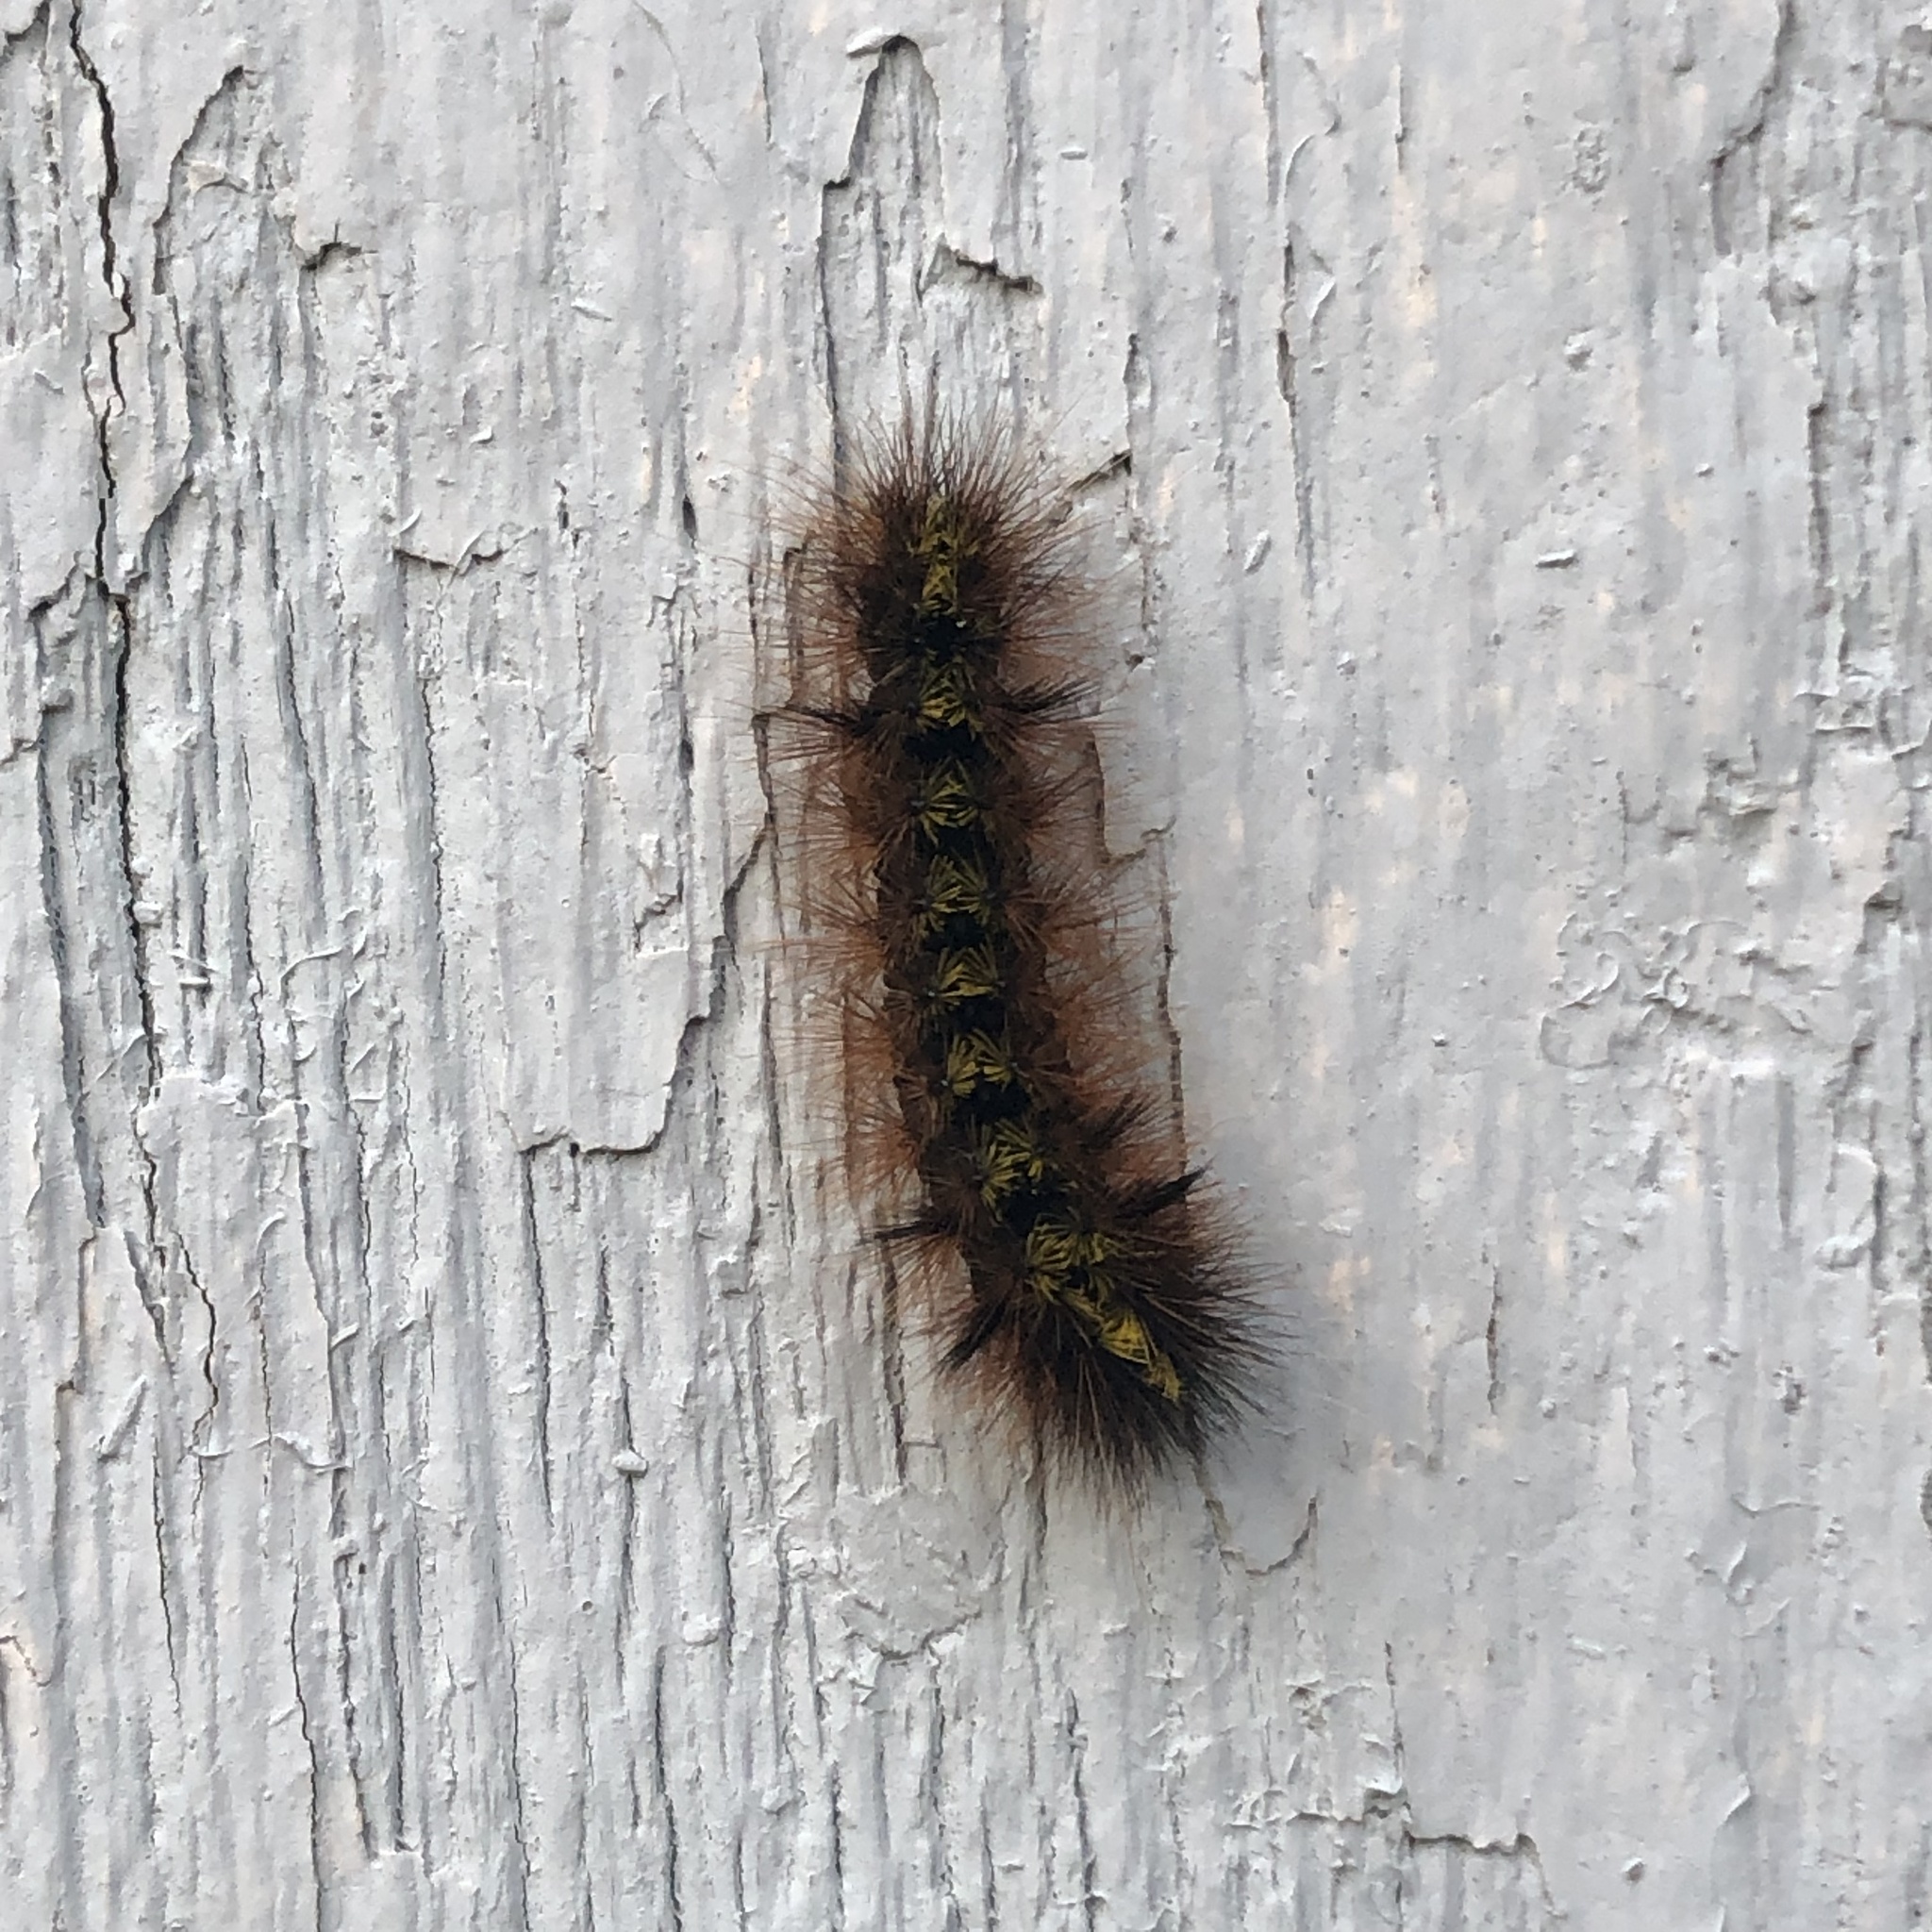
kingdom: Animalia
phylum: Arthropoda
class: Insecta
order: Lepidoptera
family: Erebidae
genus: Lophocampa
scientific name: Lophocampa argentata
